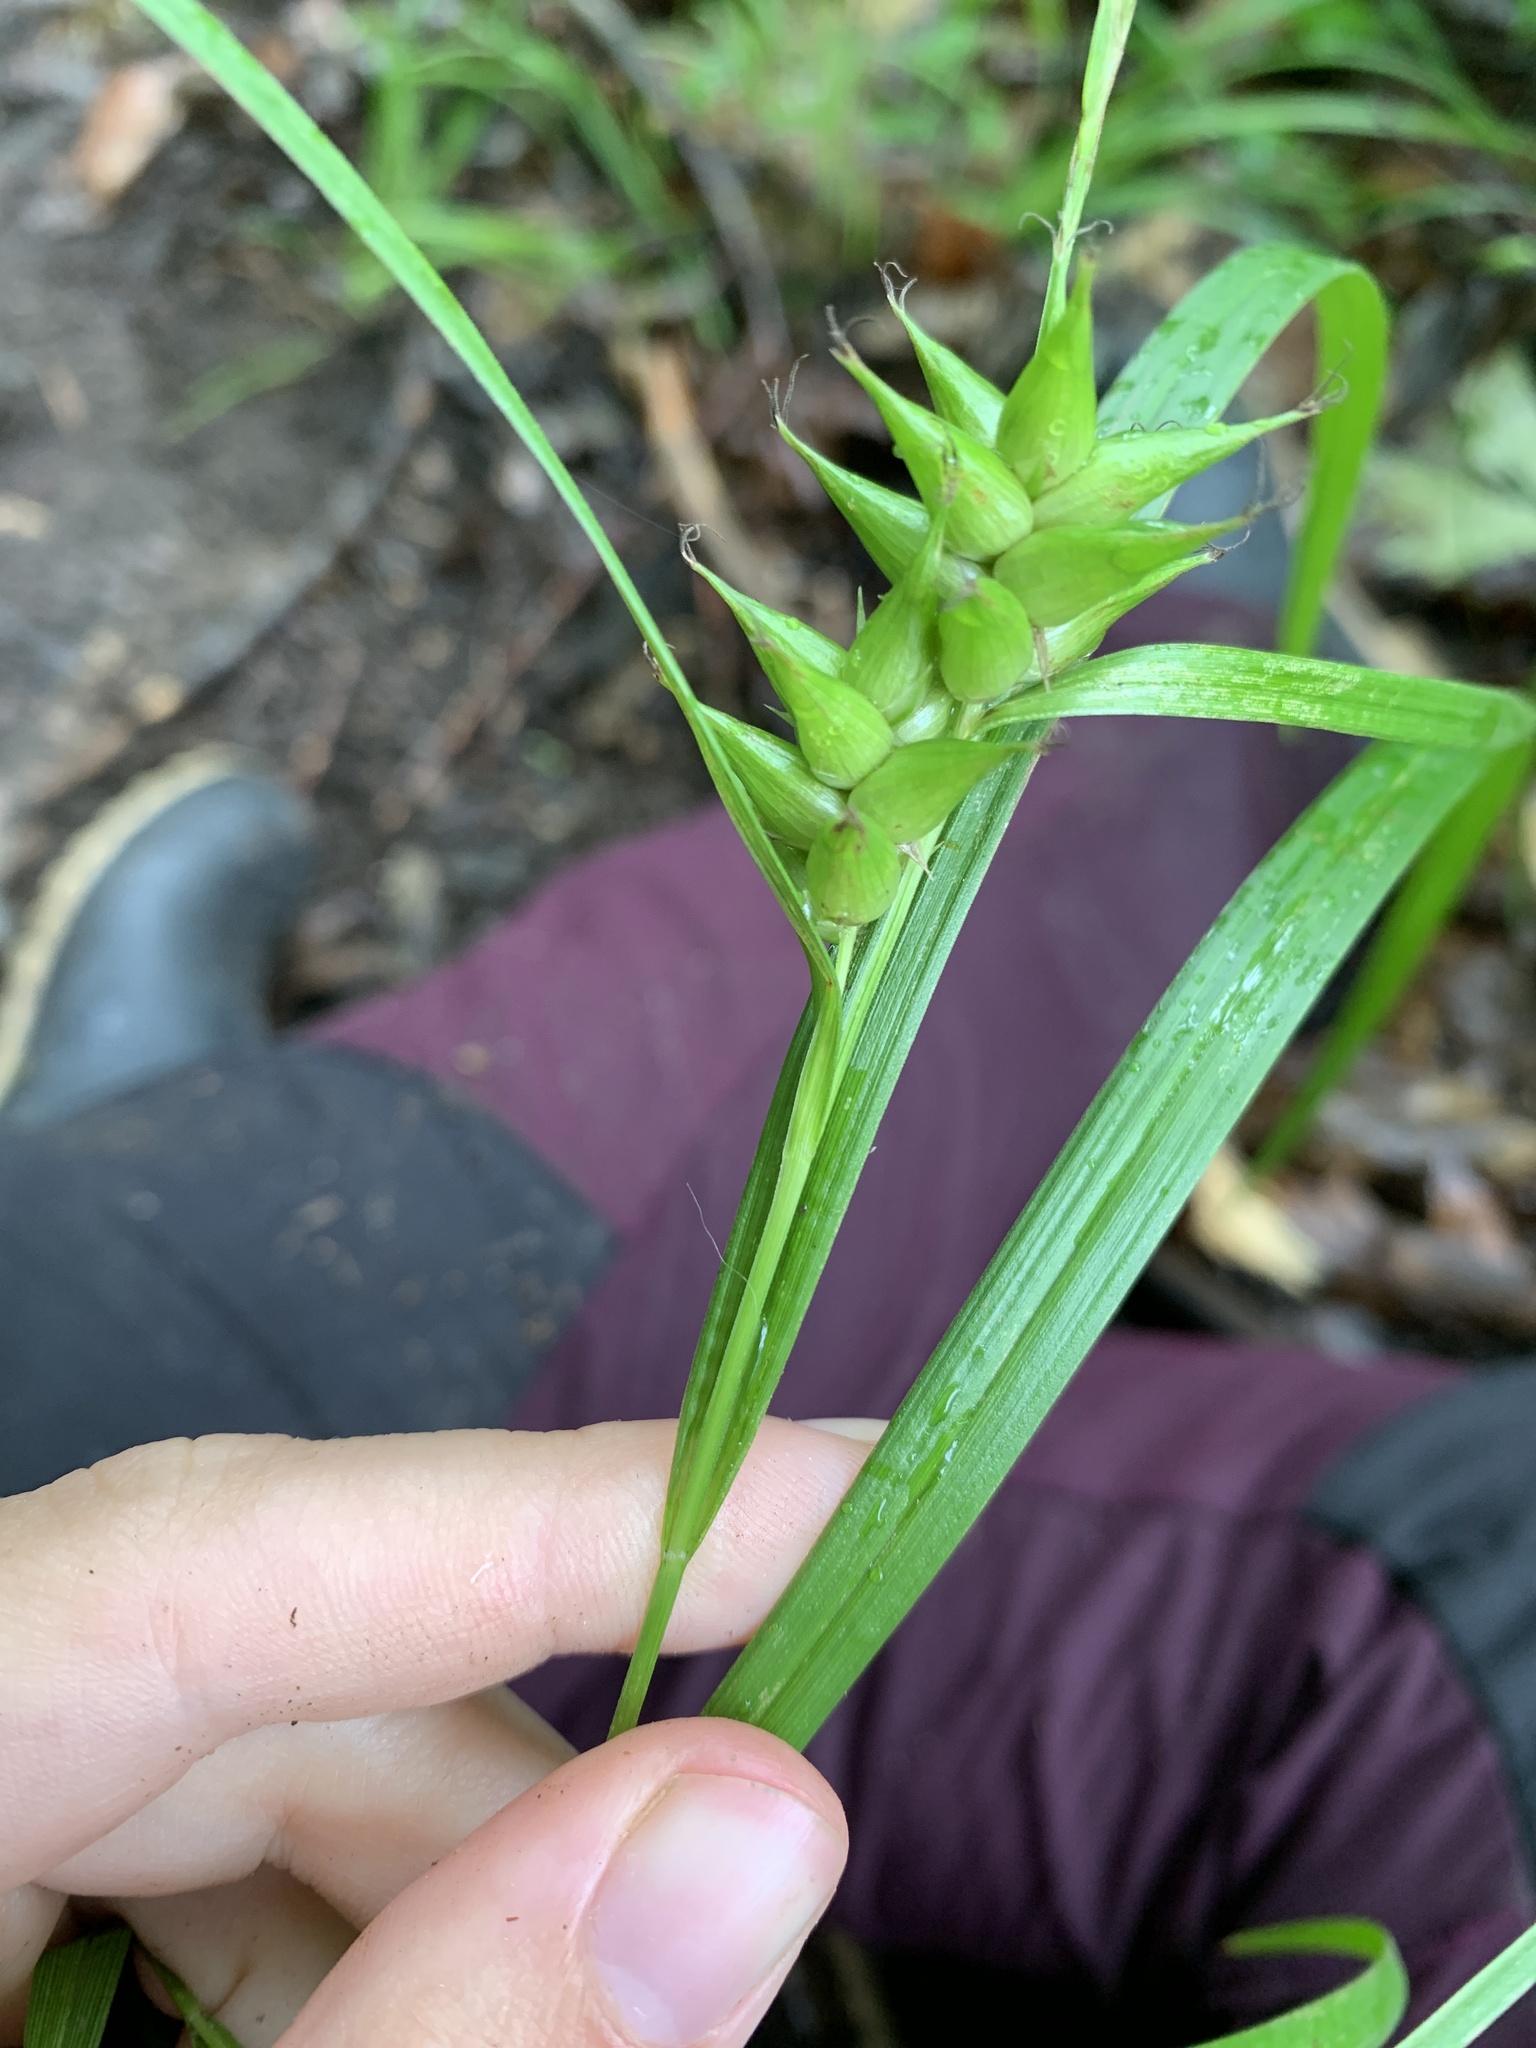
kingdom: Plantae
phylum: Tracheophyta
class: Liliopsida
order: Poales
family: Cyperaceae
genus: Carex
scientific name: Carex intumescens
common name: Greater bladder sedge
